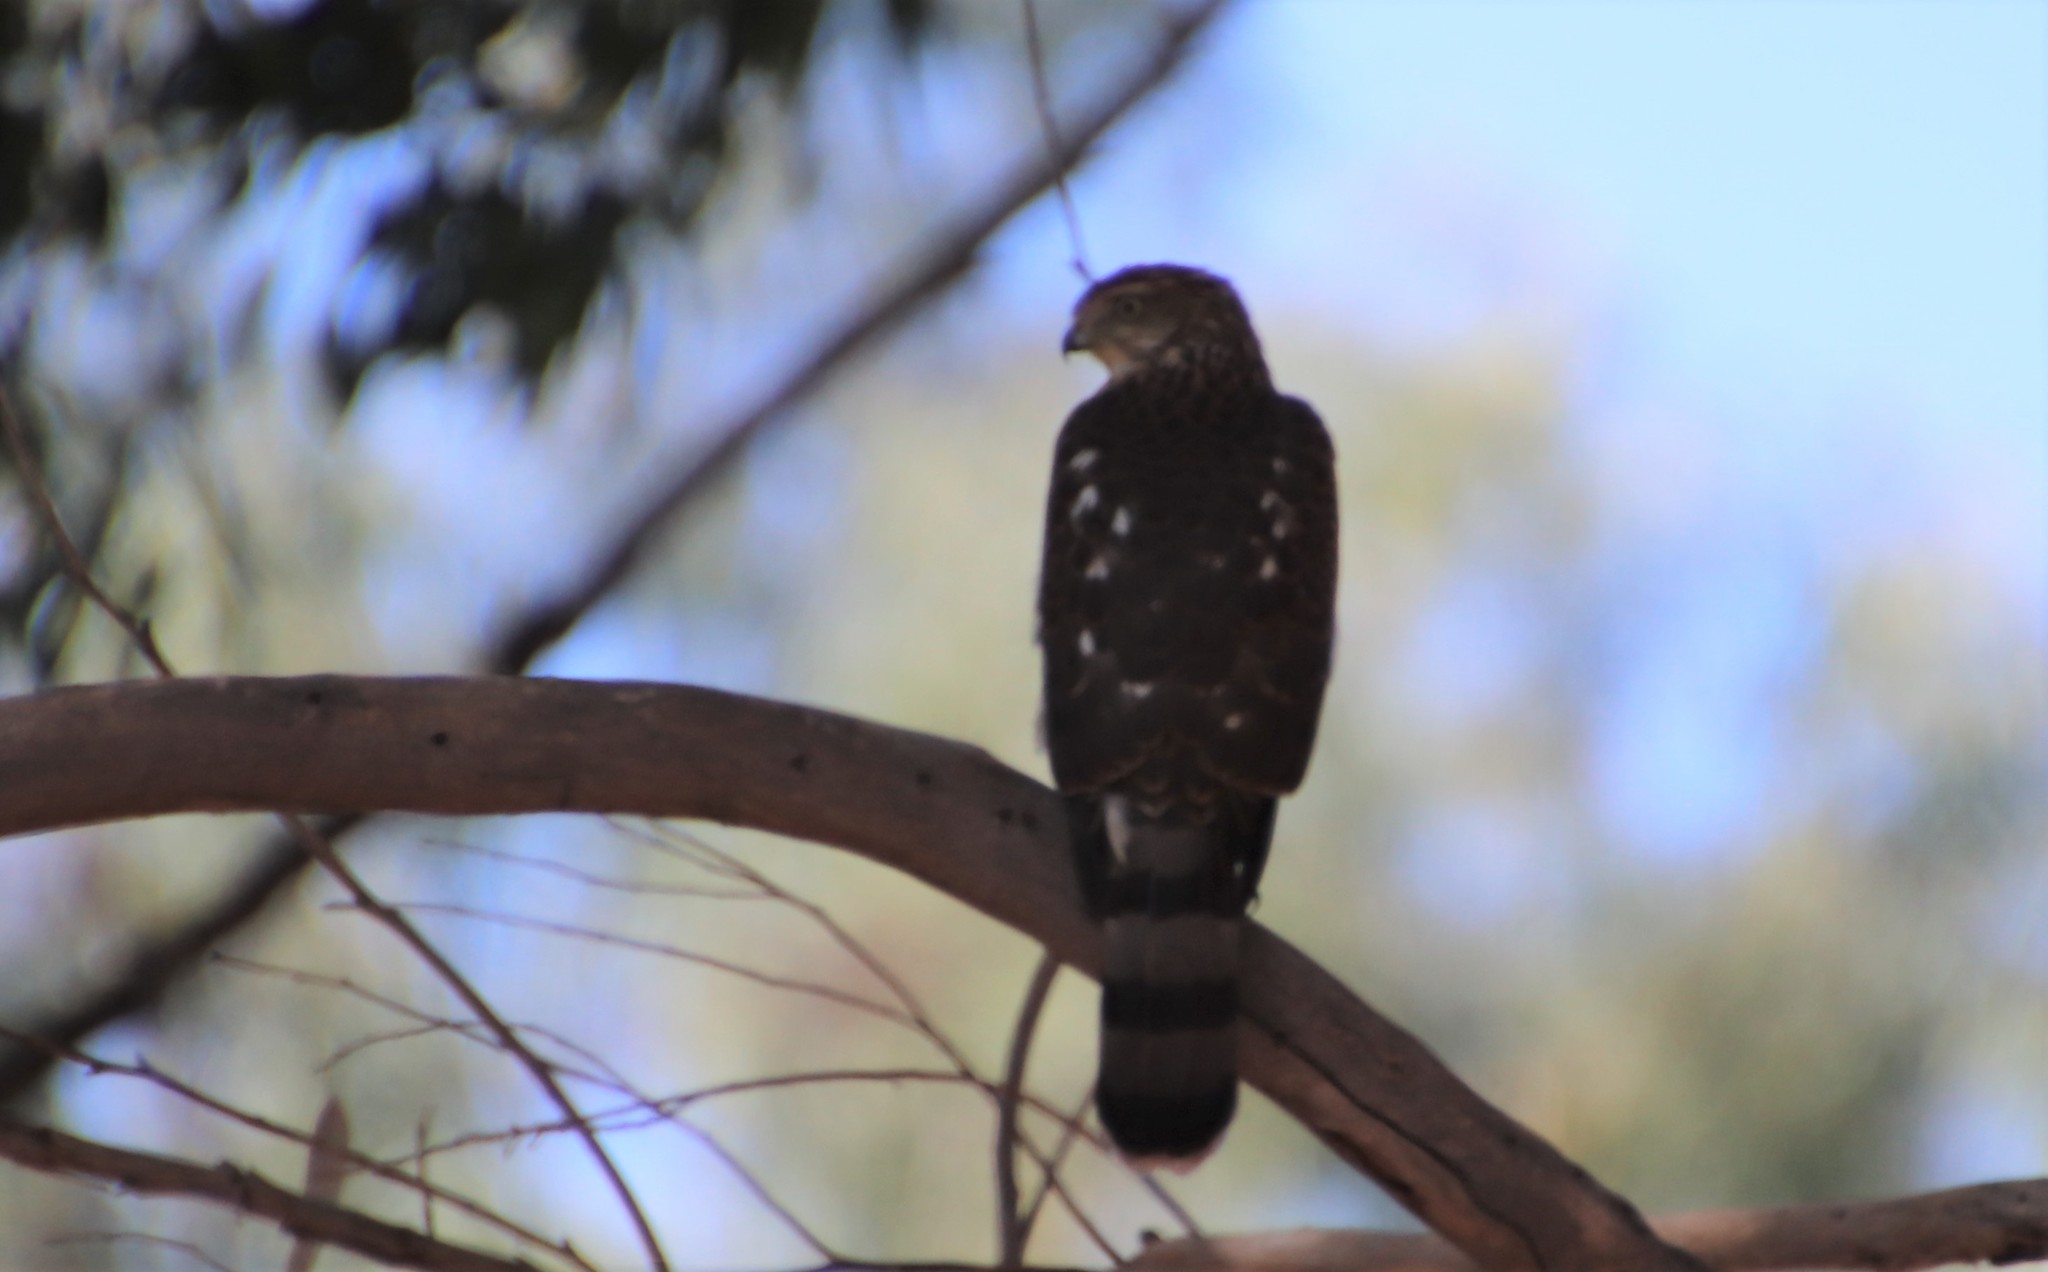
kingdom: Animalia
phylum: Chordata
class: Aves
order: Accipitriformes
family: Accipitridae
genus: Accipiter
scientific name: Accipiter cooperii
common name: Cooper's hawk
